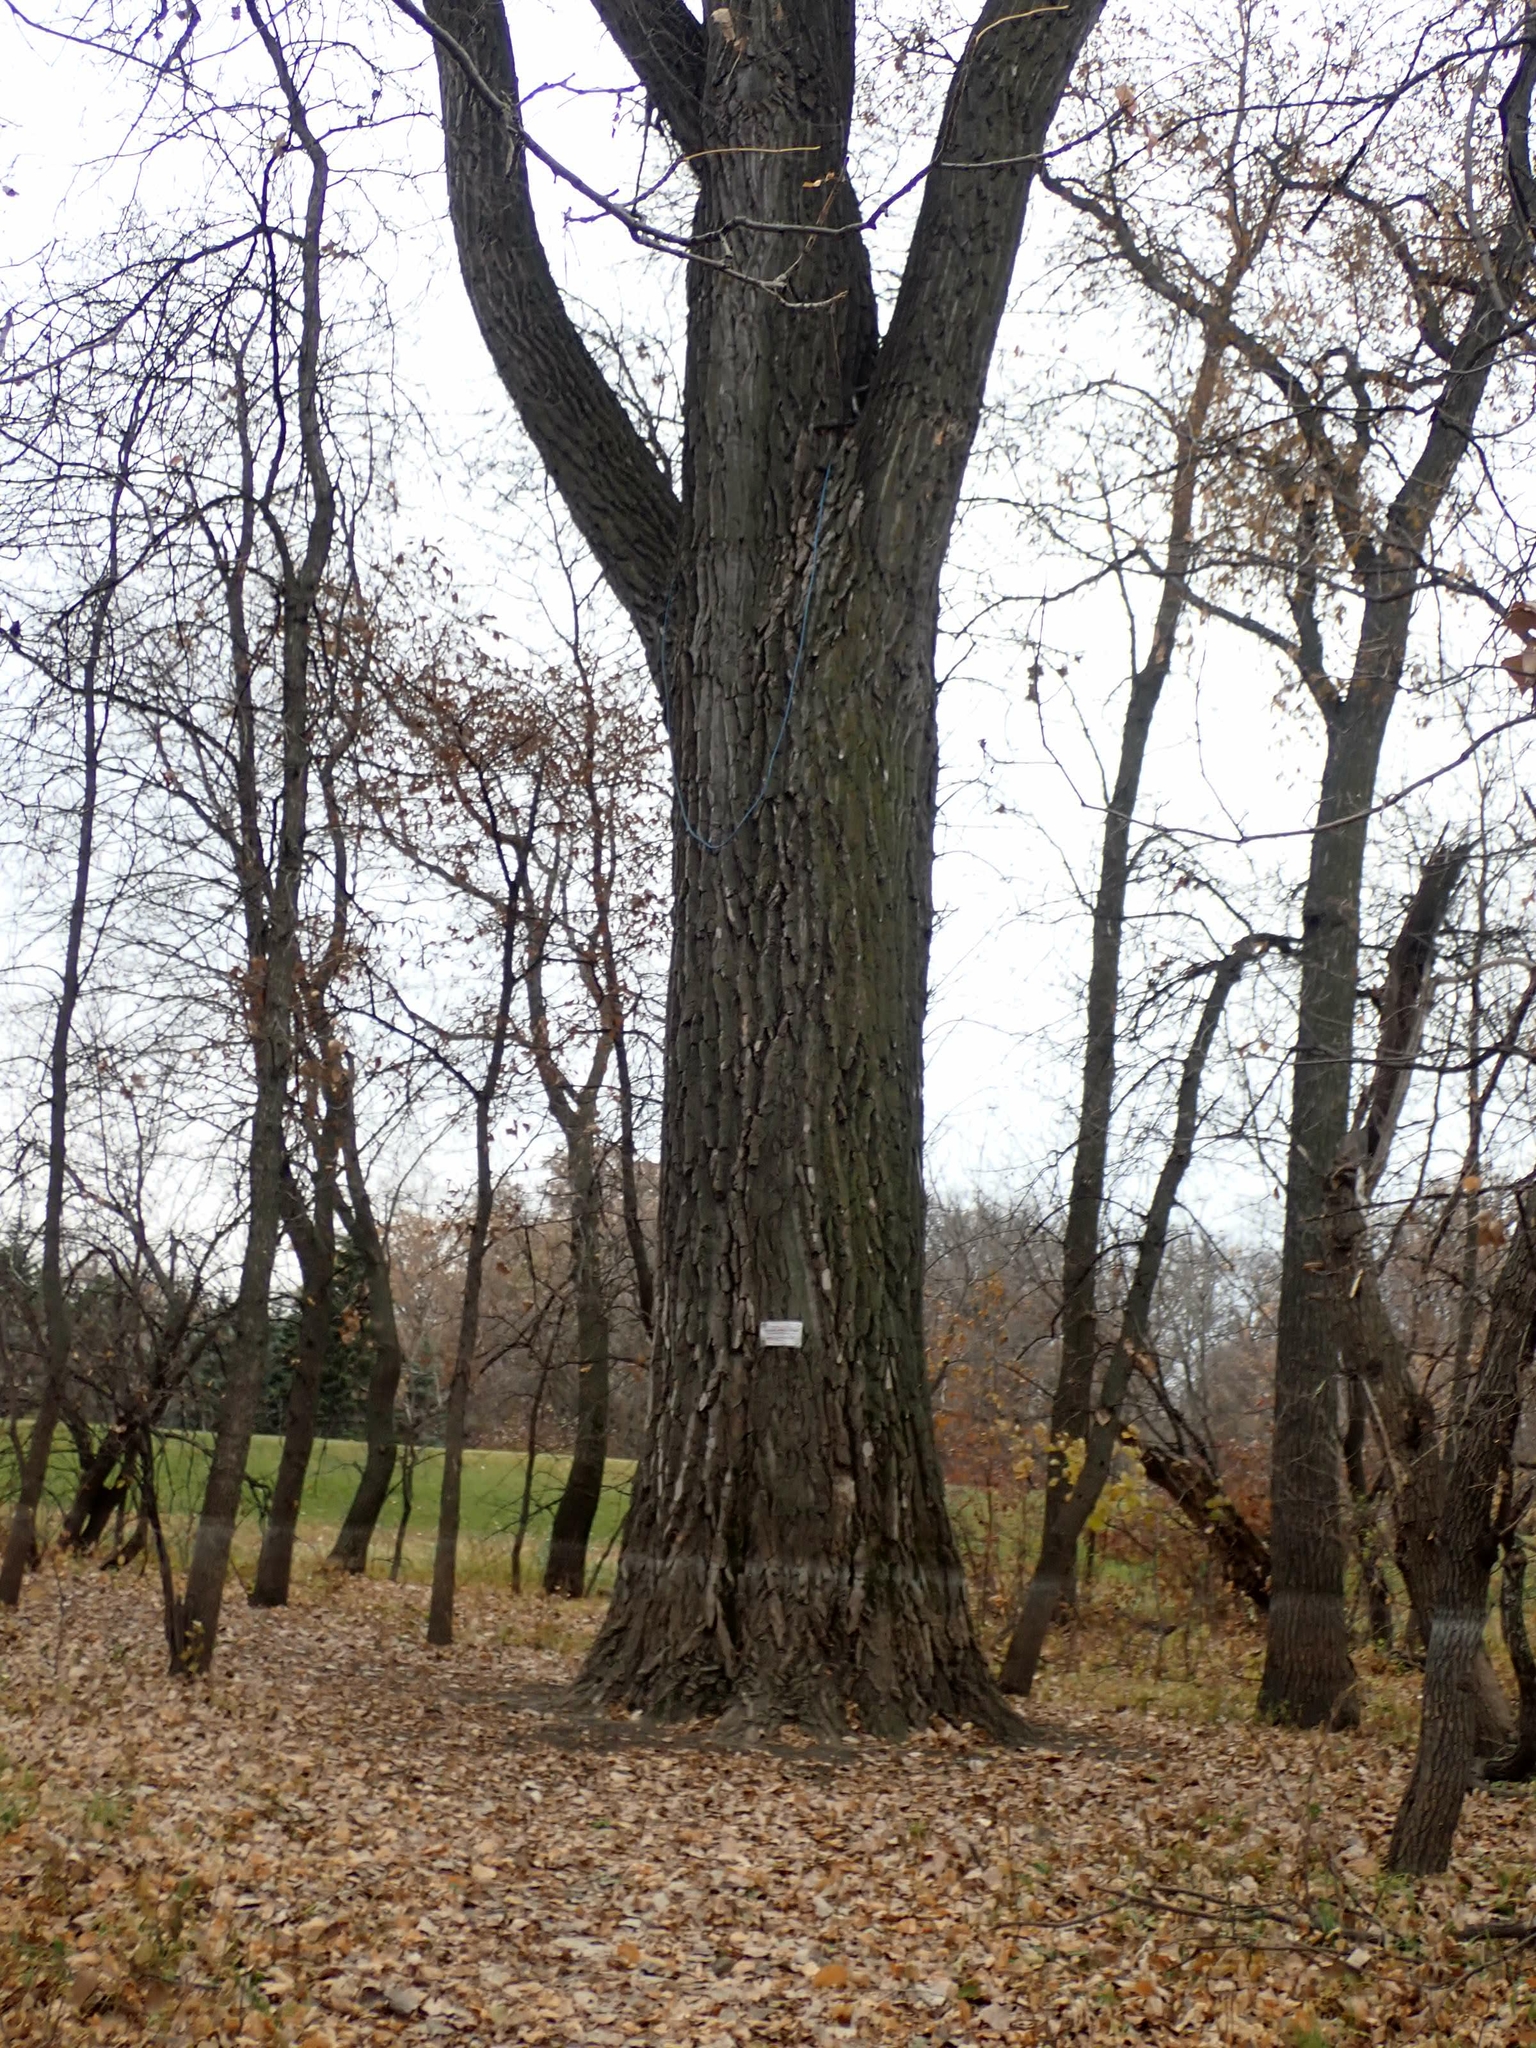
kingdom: Plantae
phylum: Tracheophyta
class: Magnoliopsida
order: Malpighiales
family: Salicaceae
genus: Populus
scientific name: Populus deltoides
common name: Eastern cottonwood
